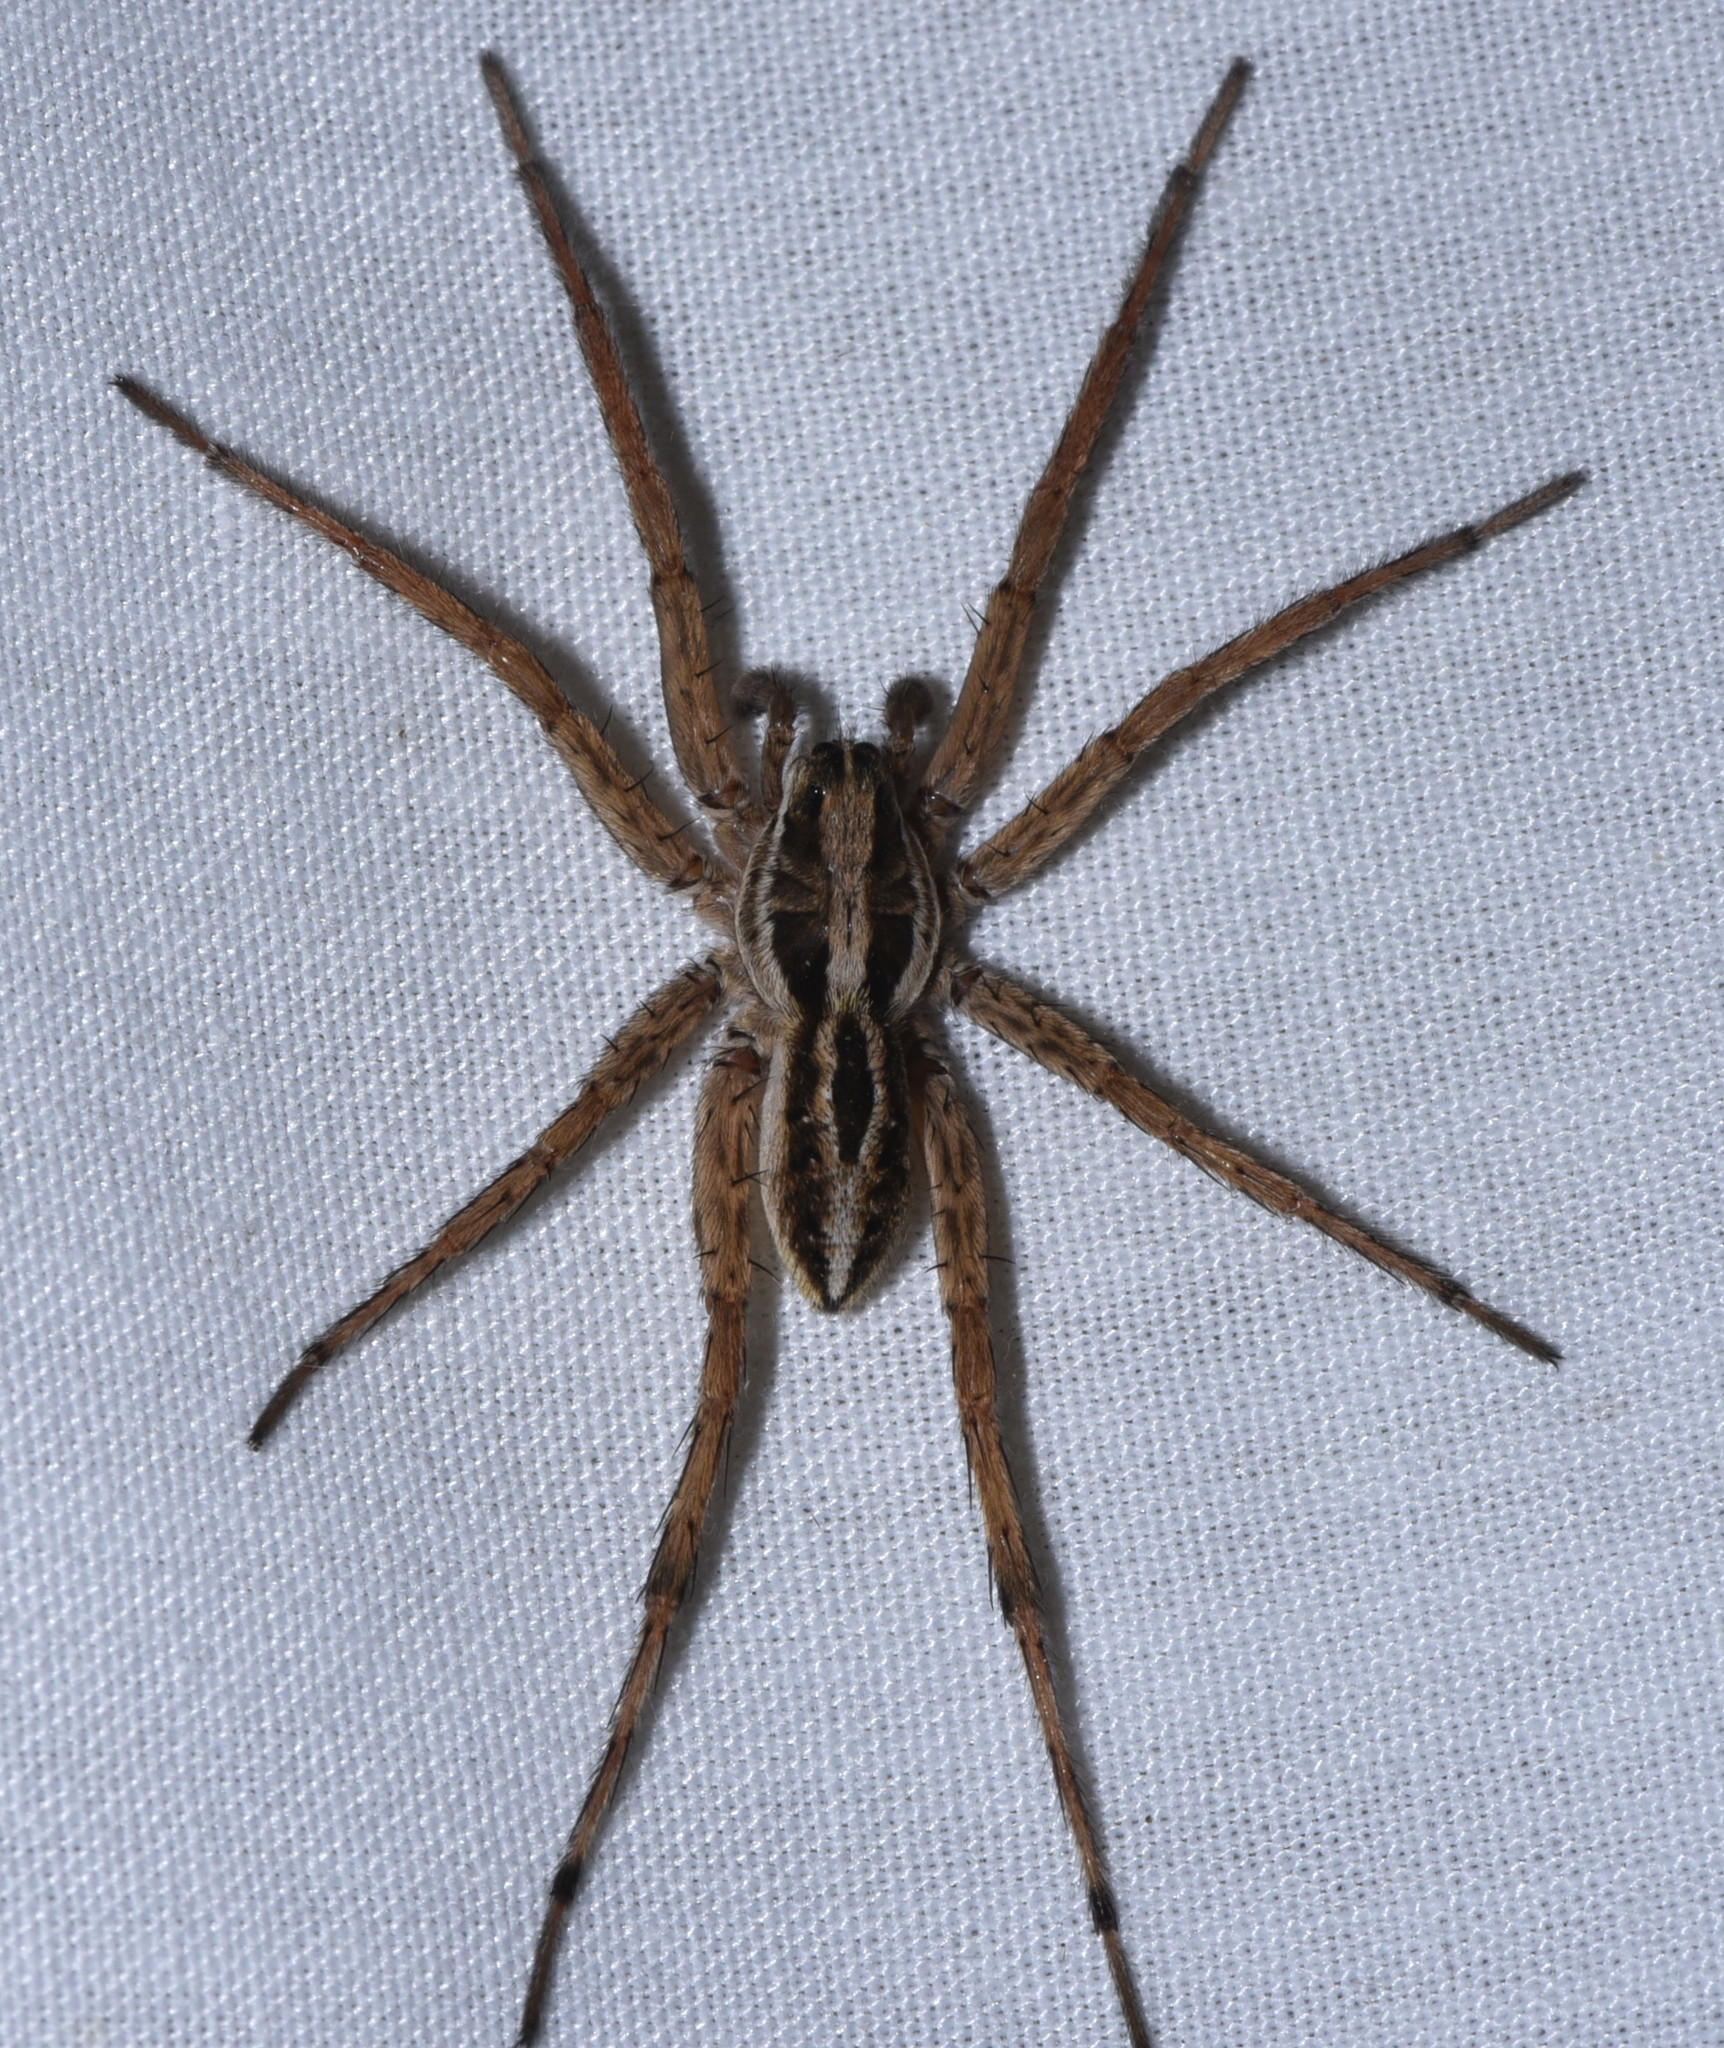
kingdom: Animalia
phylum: Arthropoda
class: Arachnida
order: Araneae
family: Lycosidae
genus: Schizocosa
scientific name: Schizocosa mccooki
